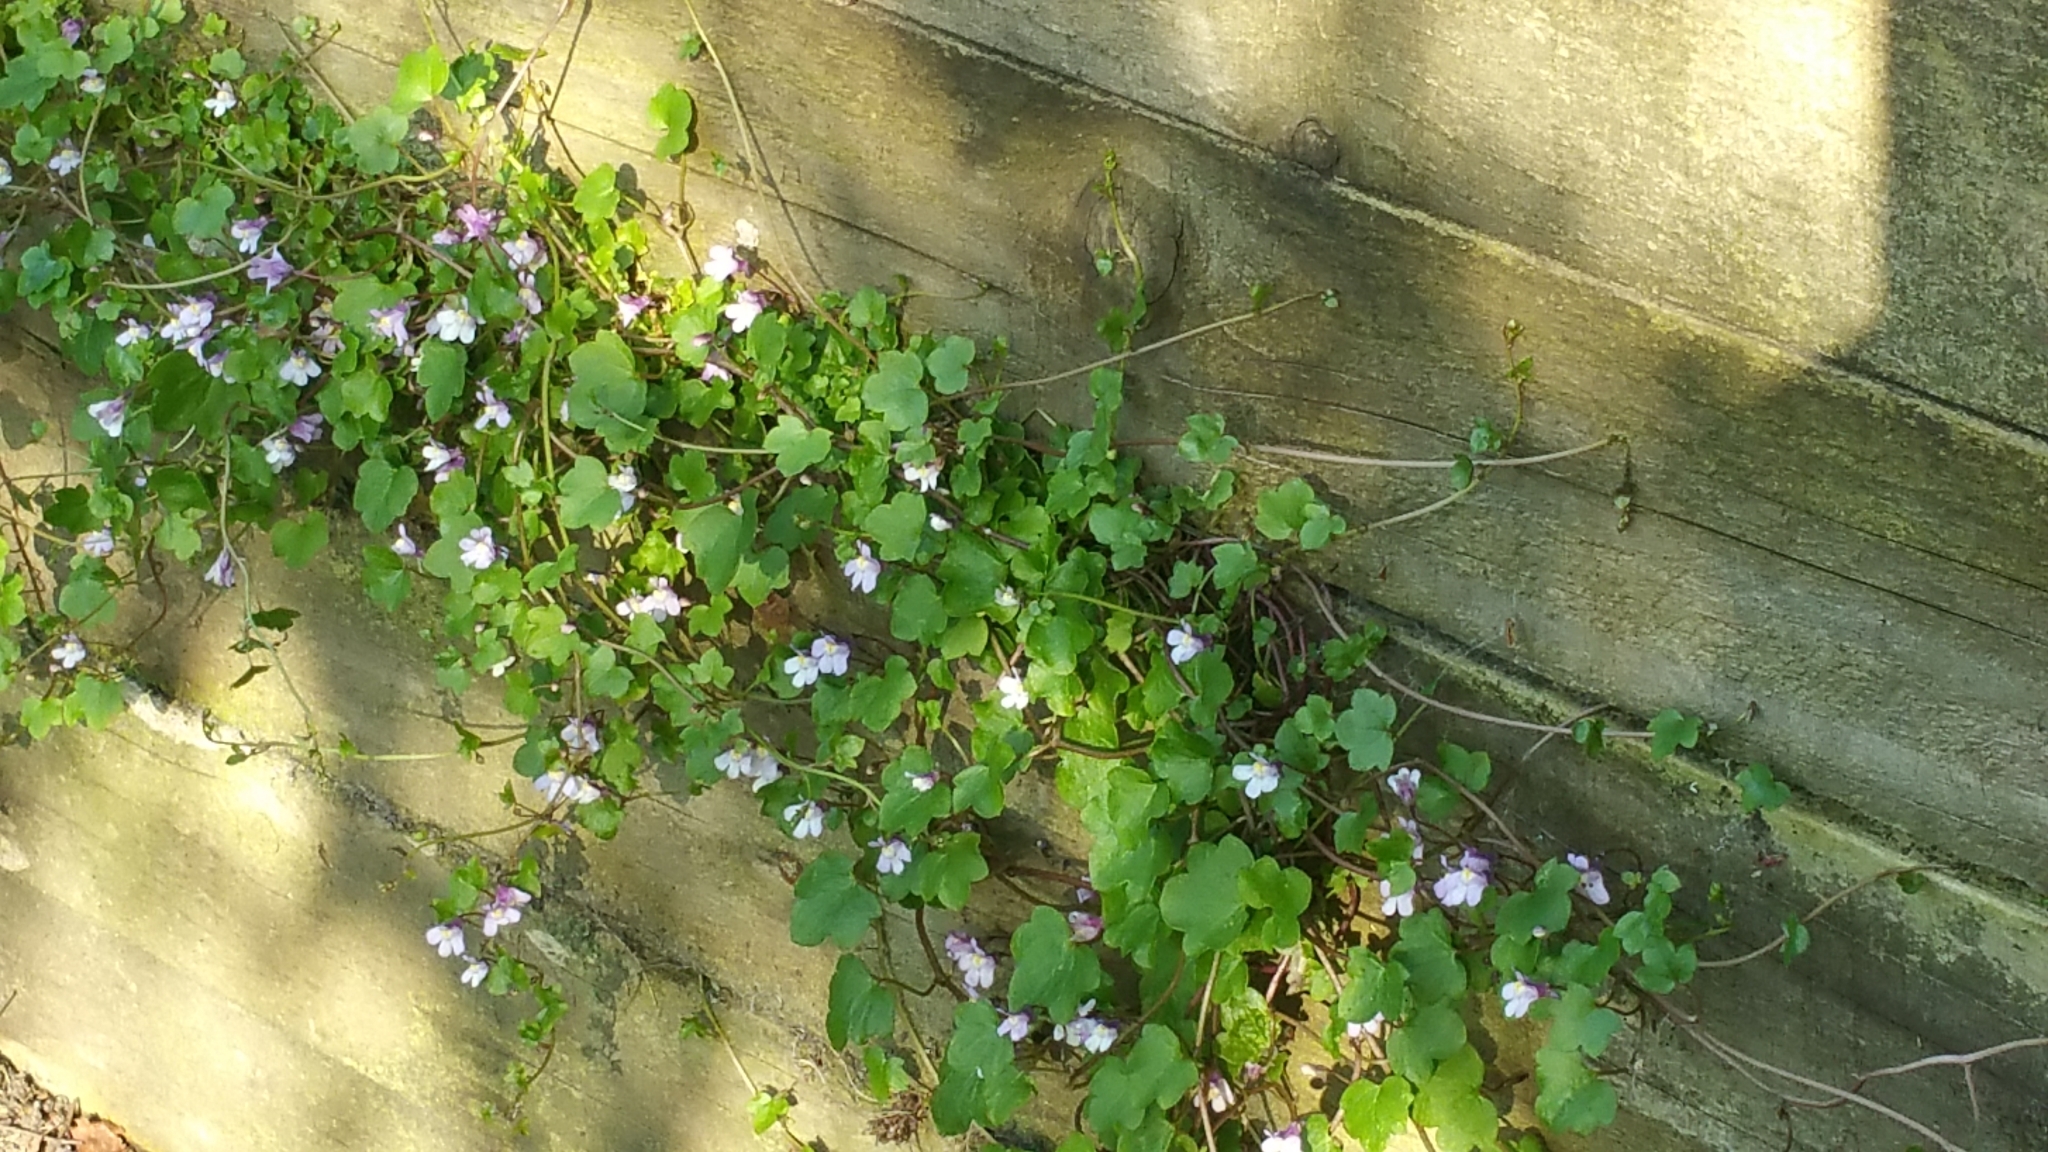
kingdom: Plantae
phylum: Tracheophyta
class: Magnoliopsida
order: Lamiales
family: Plantaginaceae
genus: Cymbalaria
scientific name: Cymbalaria muralis
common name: Ivy-leaved toadflax
